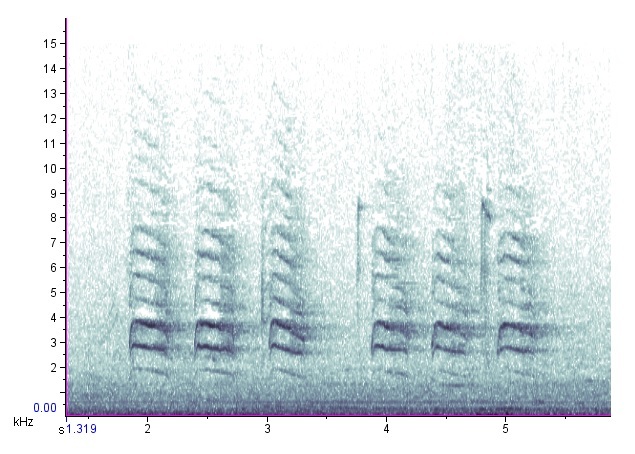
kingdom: Animalia
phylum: Chordata
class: Aves
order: Passeriformes
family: Corvidae
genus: Cyanocitta
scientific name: Cyanocitta cristata
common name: Blue jay
